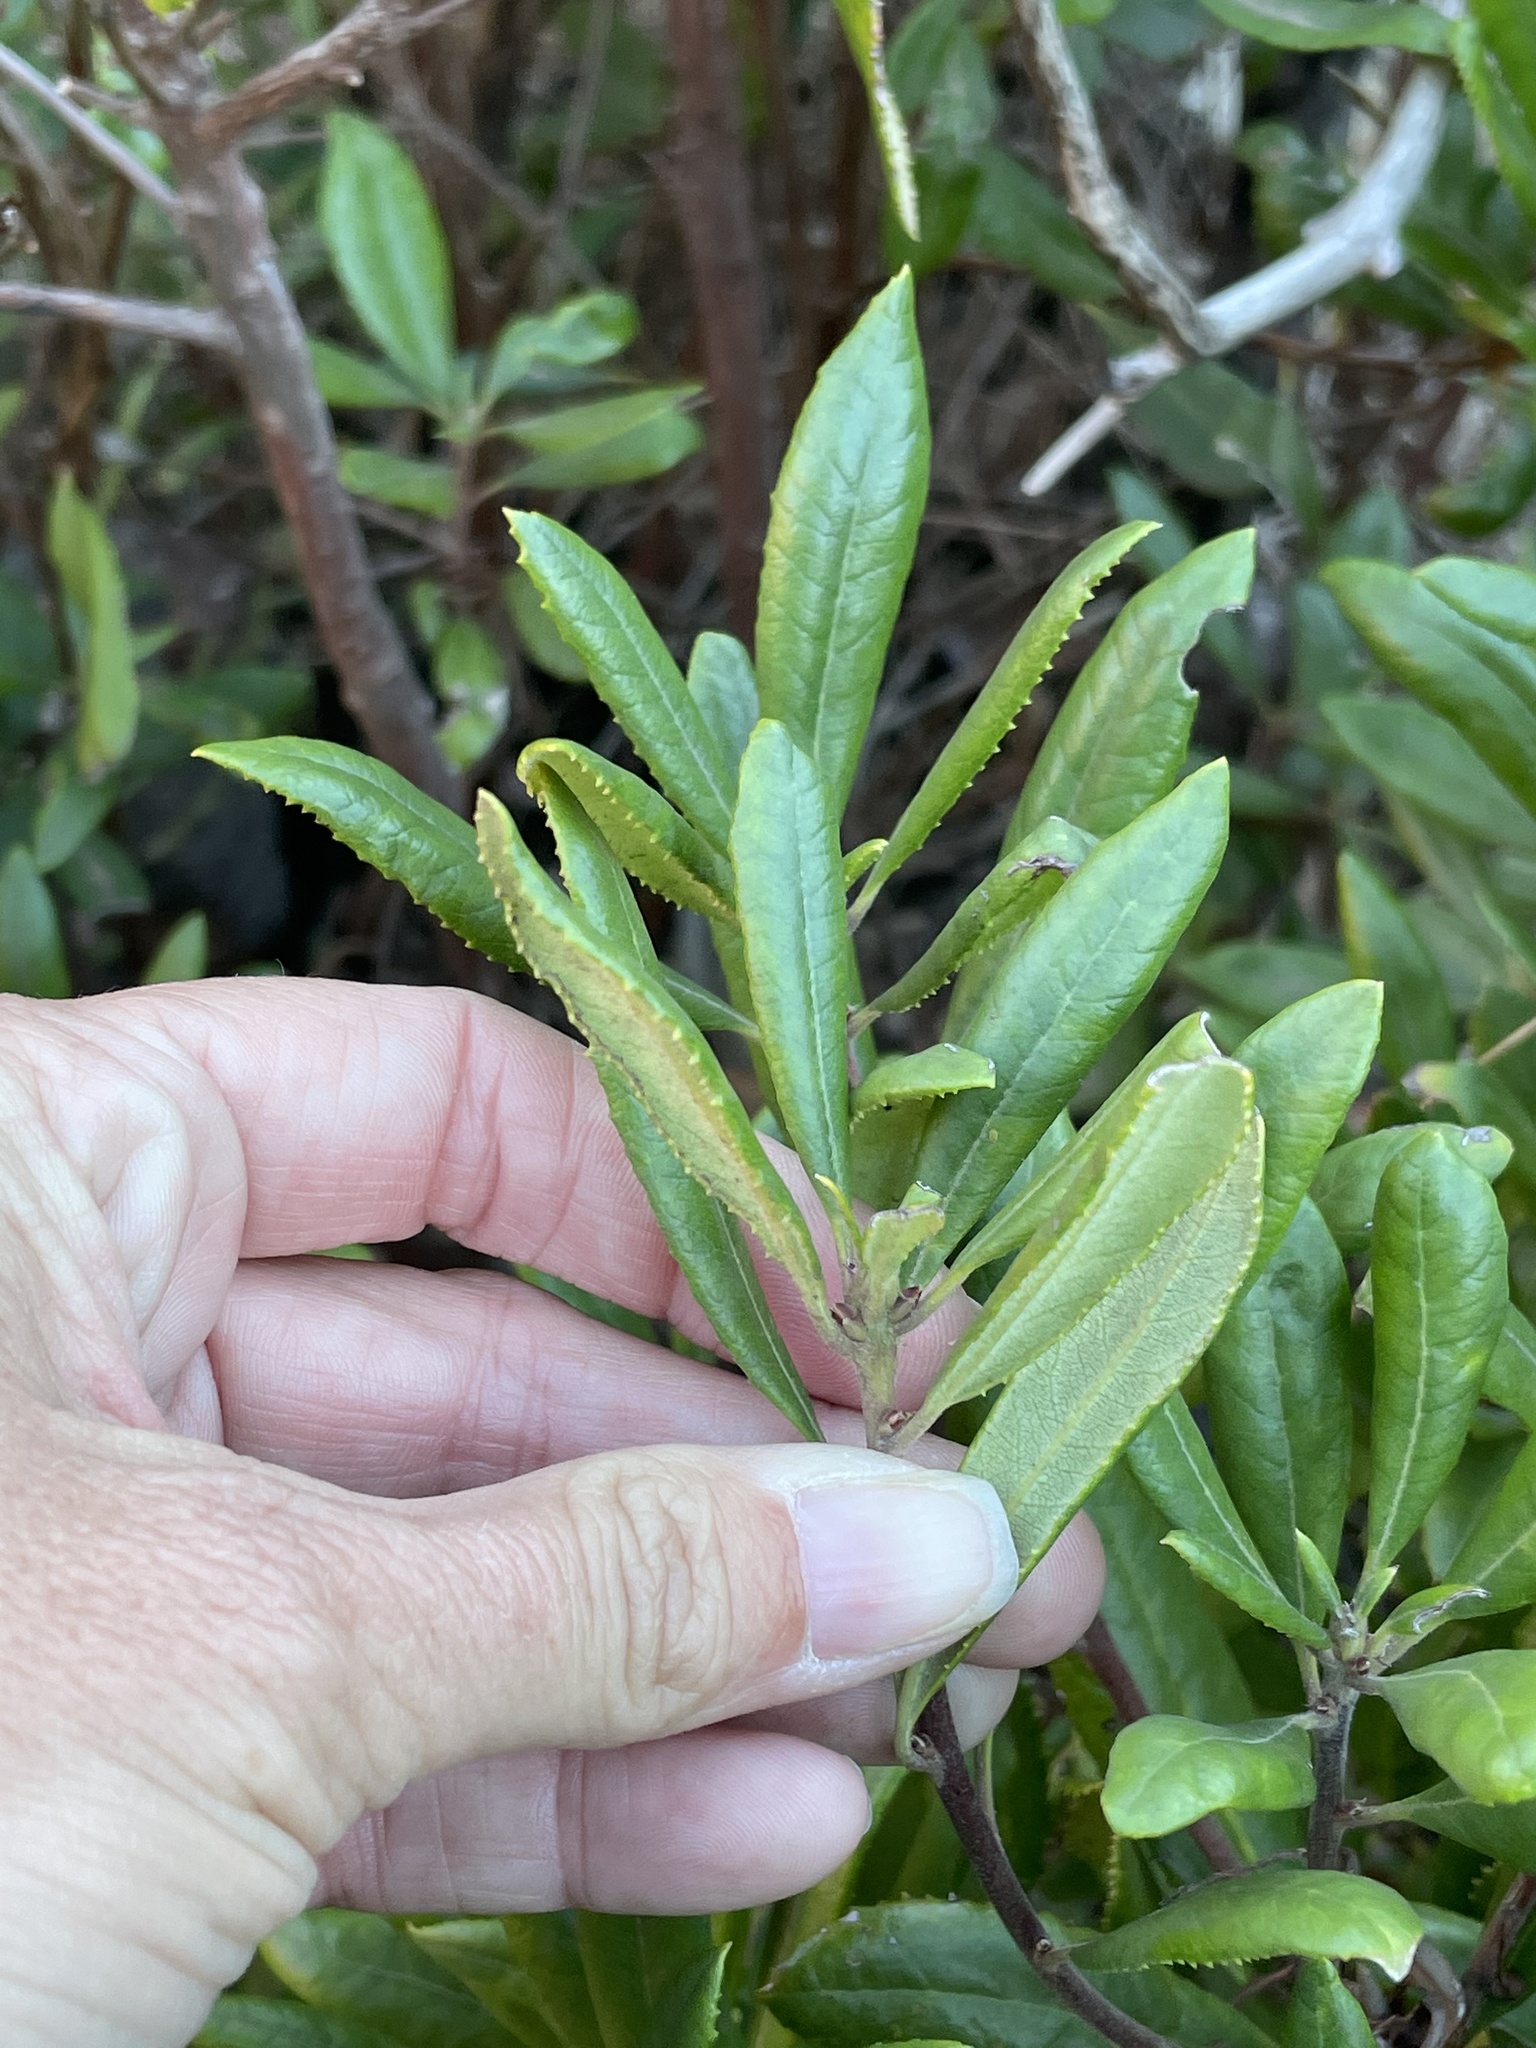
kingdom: Plantae
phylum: Tracheophyta
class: Magnoliopsida
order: Ericales
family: Ericaceae
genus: Comarostaphylis
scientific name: Comarostaphylis diversifolia
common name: Summer-holly
